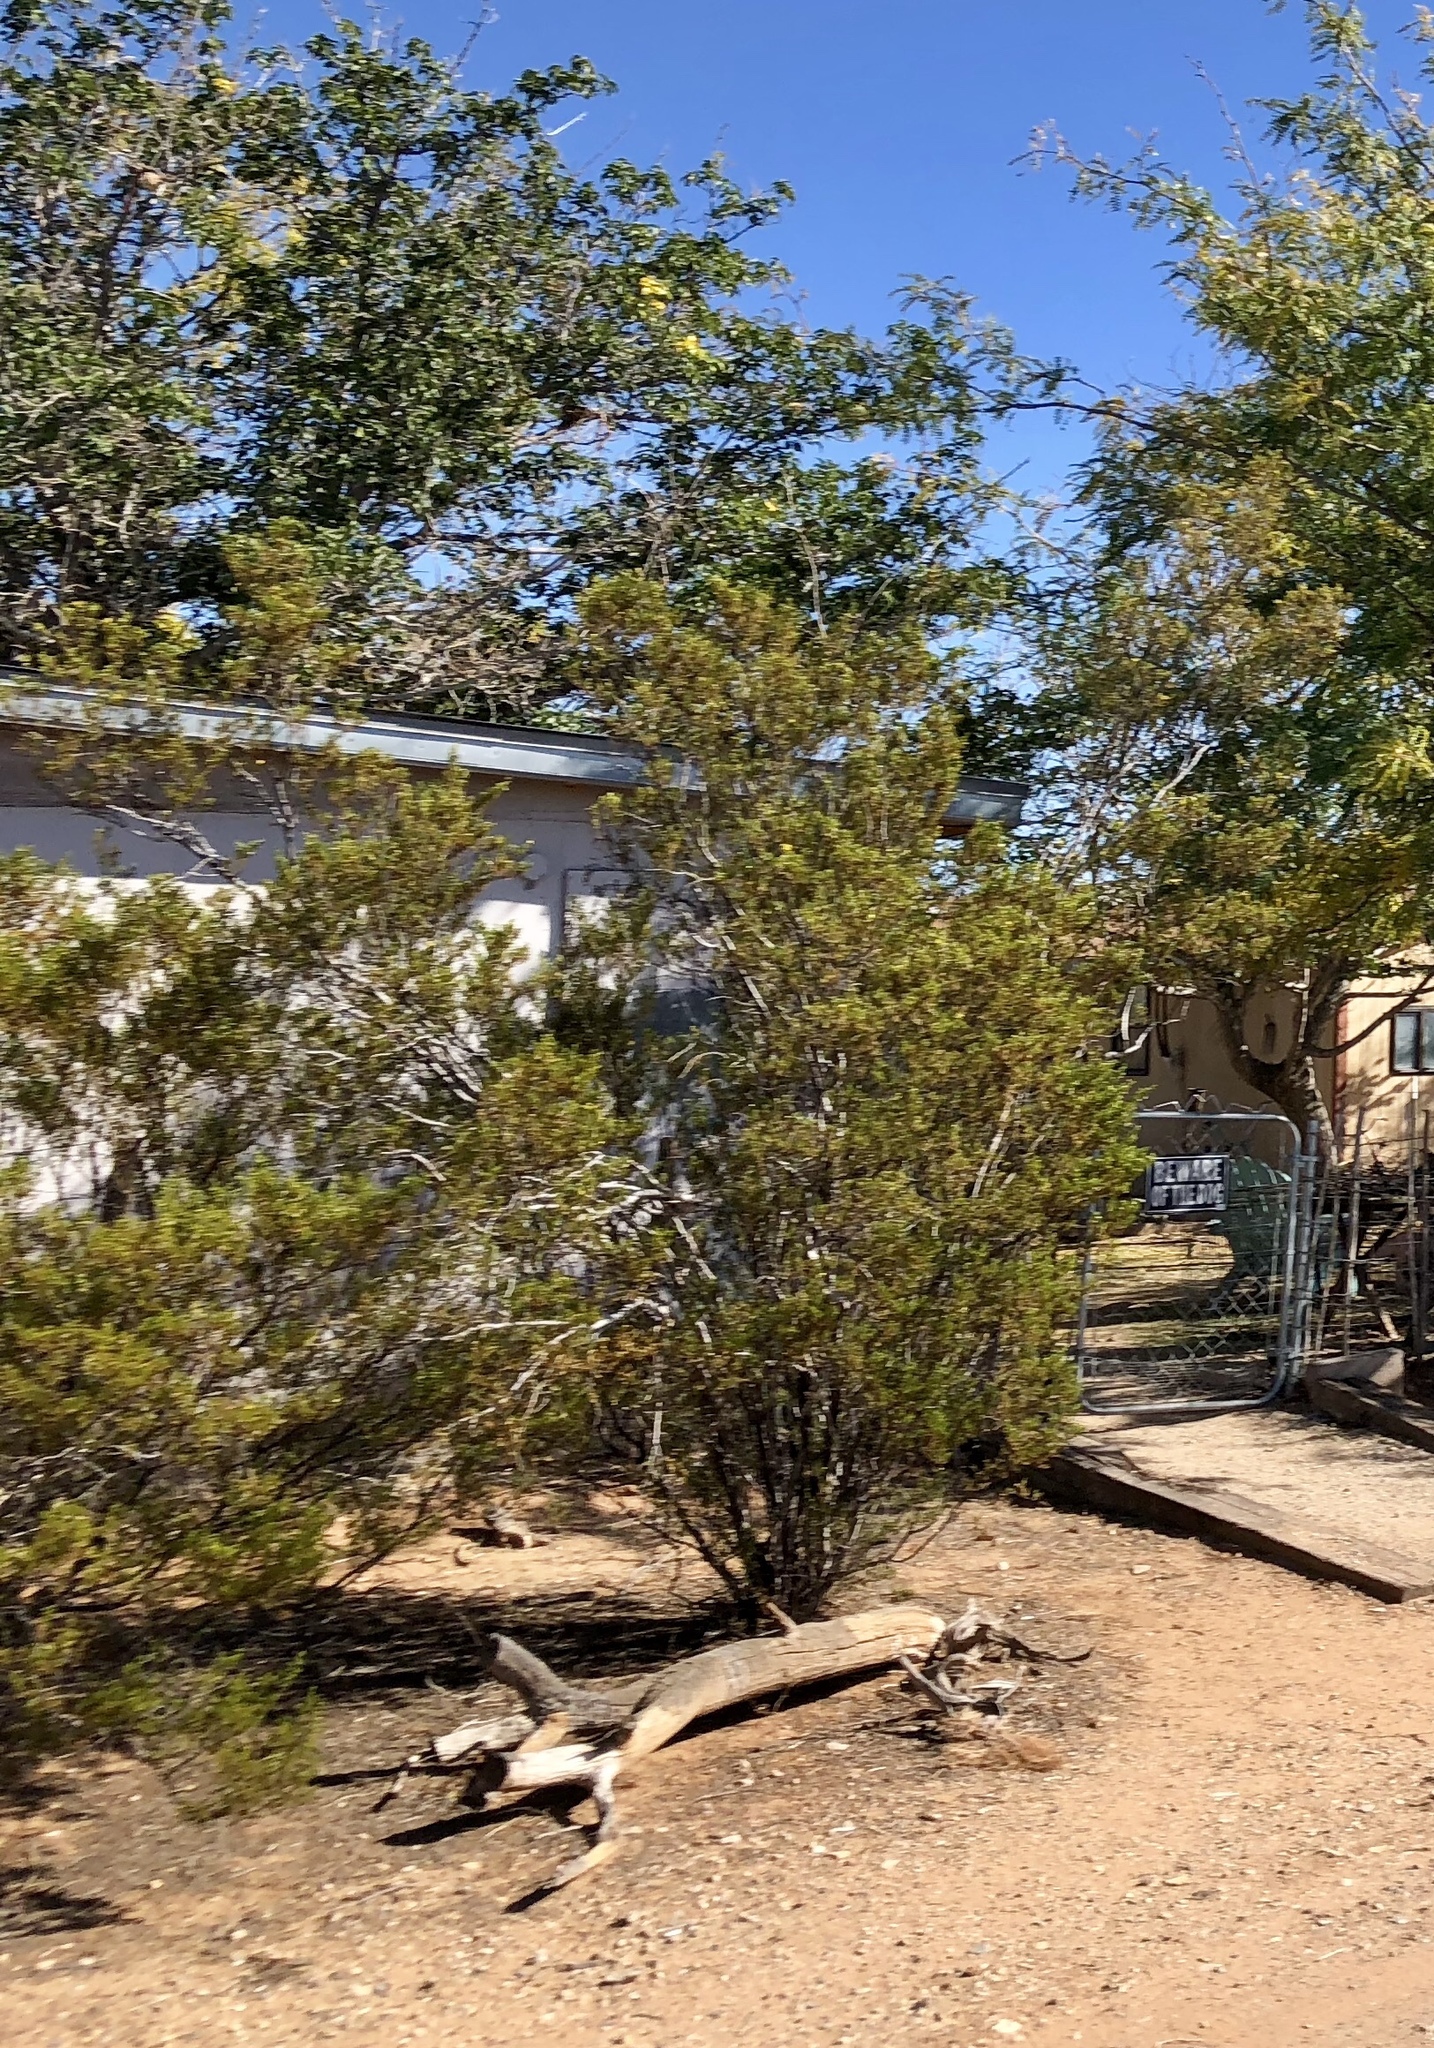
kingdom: Plantae
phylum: Tracheophyta
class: Magnoliopsida
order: Zygophyllales
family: Zygophyllaceae
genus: Larrea
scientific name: Larrea tridentata
